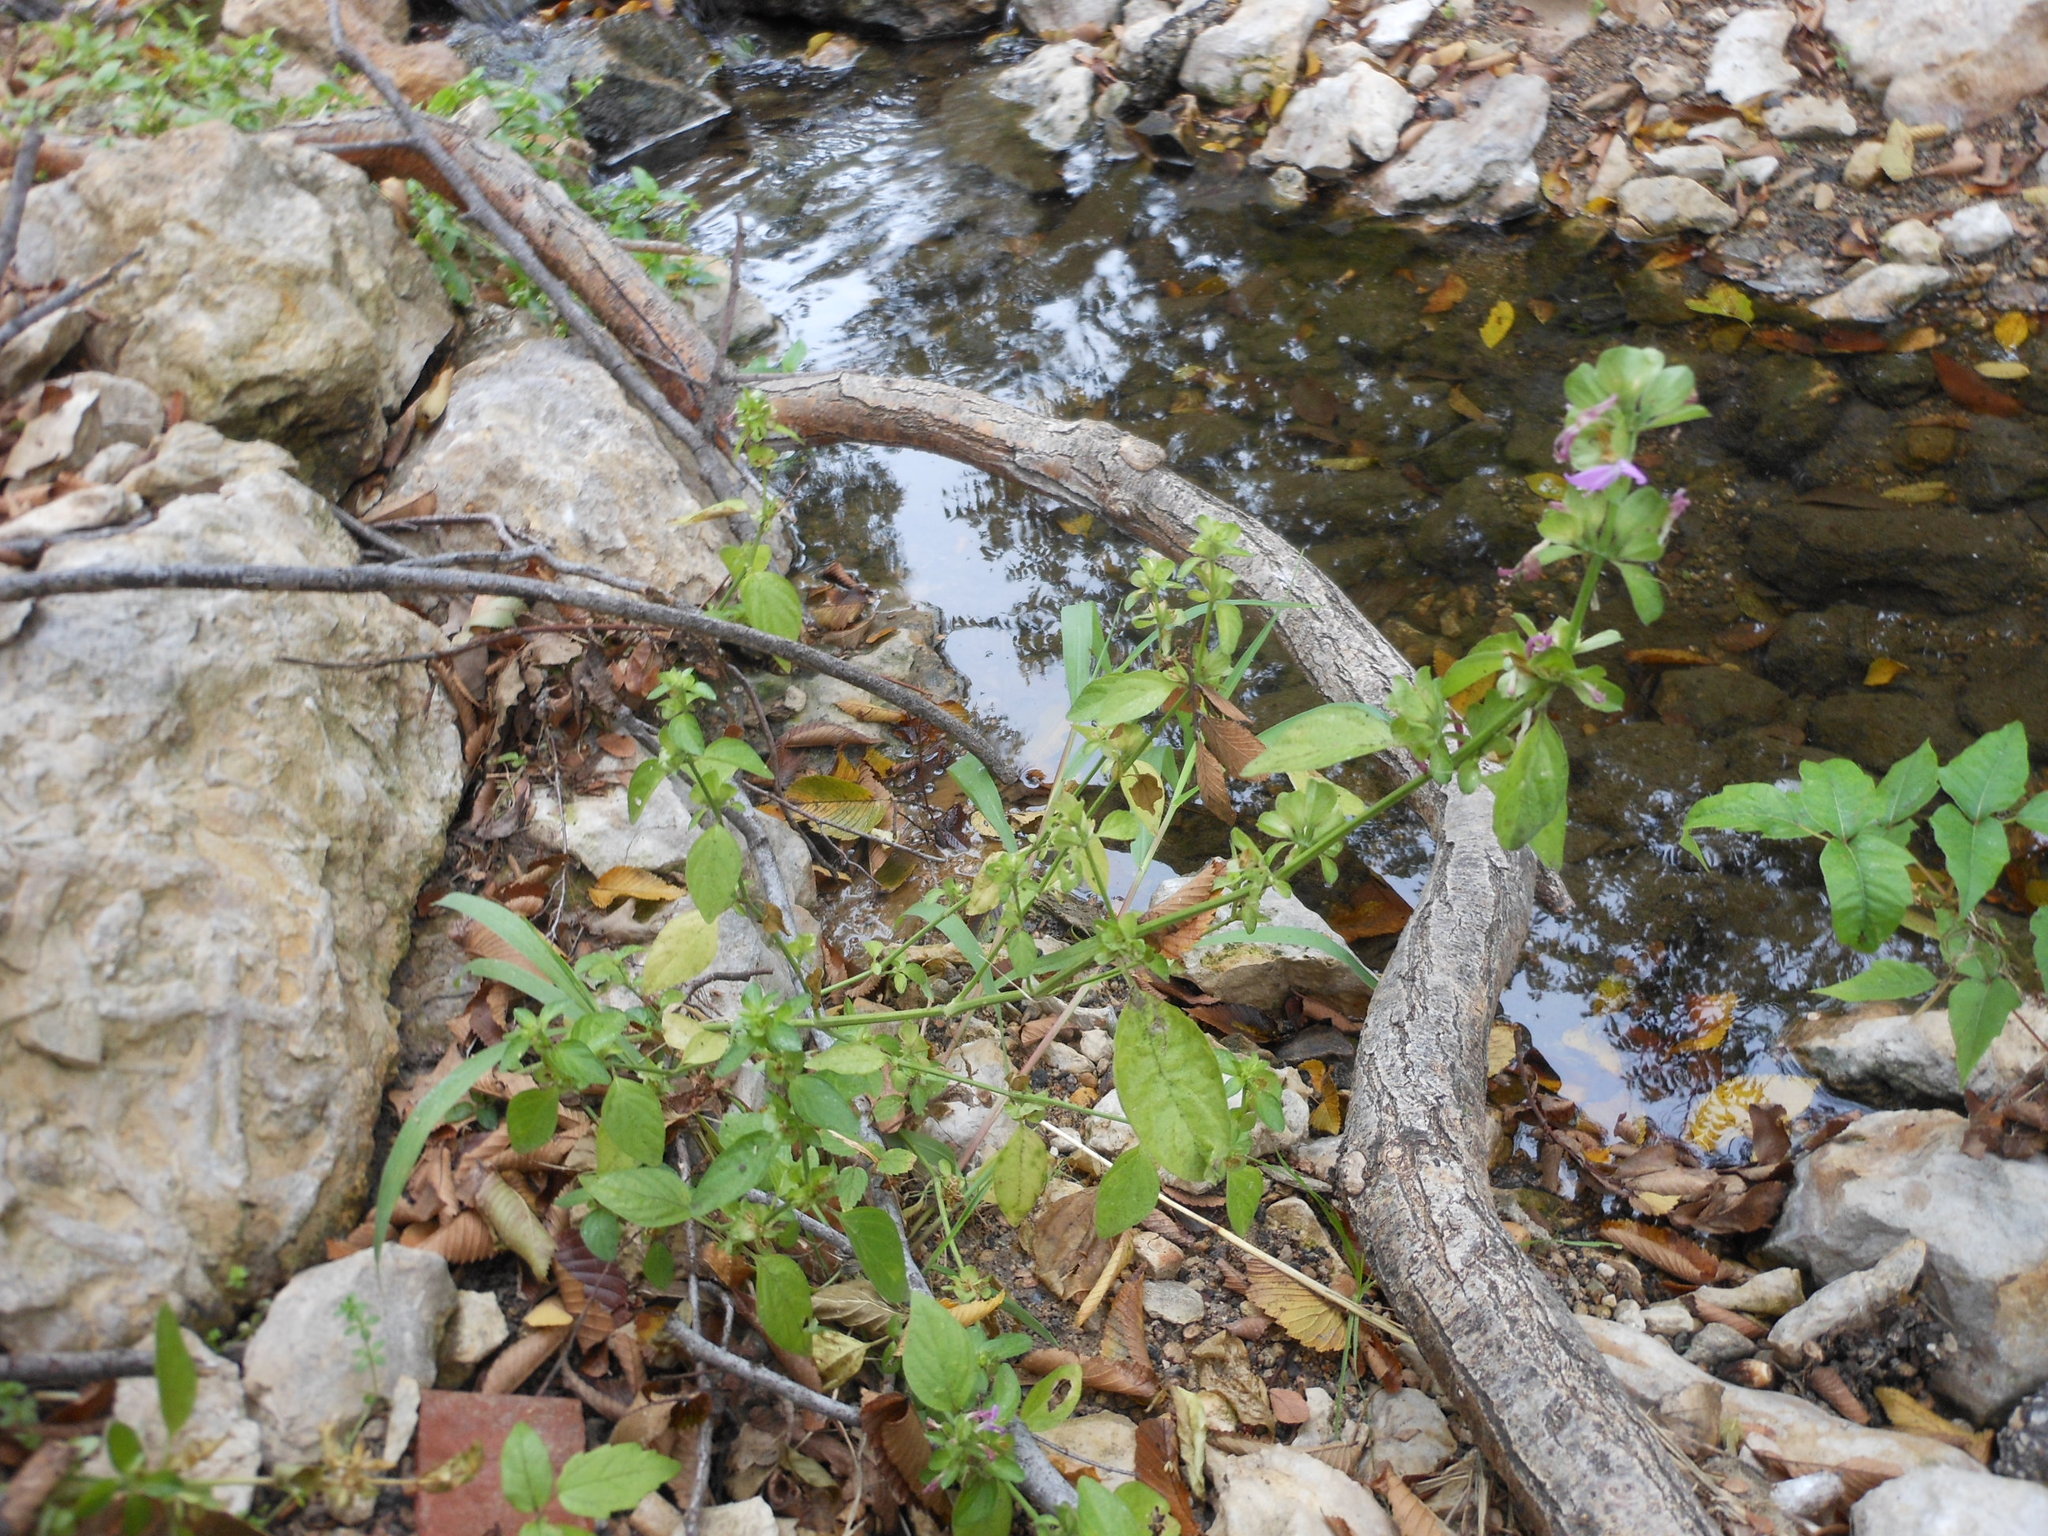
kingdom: Plantae
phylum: Tracheophyta
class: Magnoliopsida
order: Lamiales
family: Acanthaceae
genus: Dicliptera
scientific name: Dicliptera brachiata
